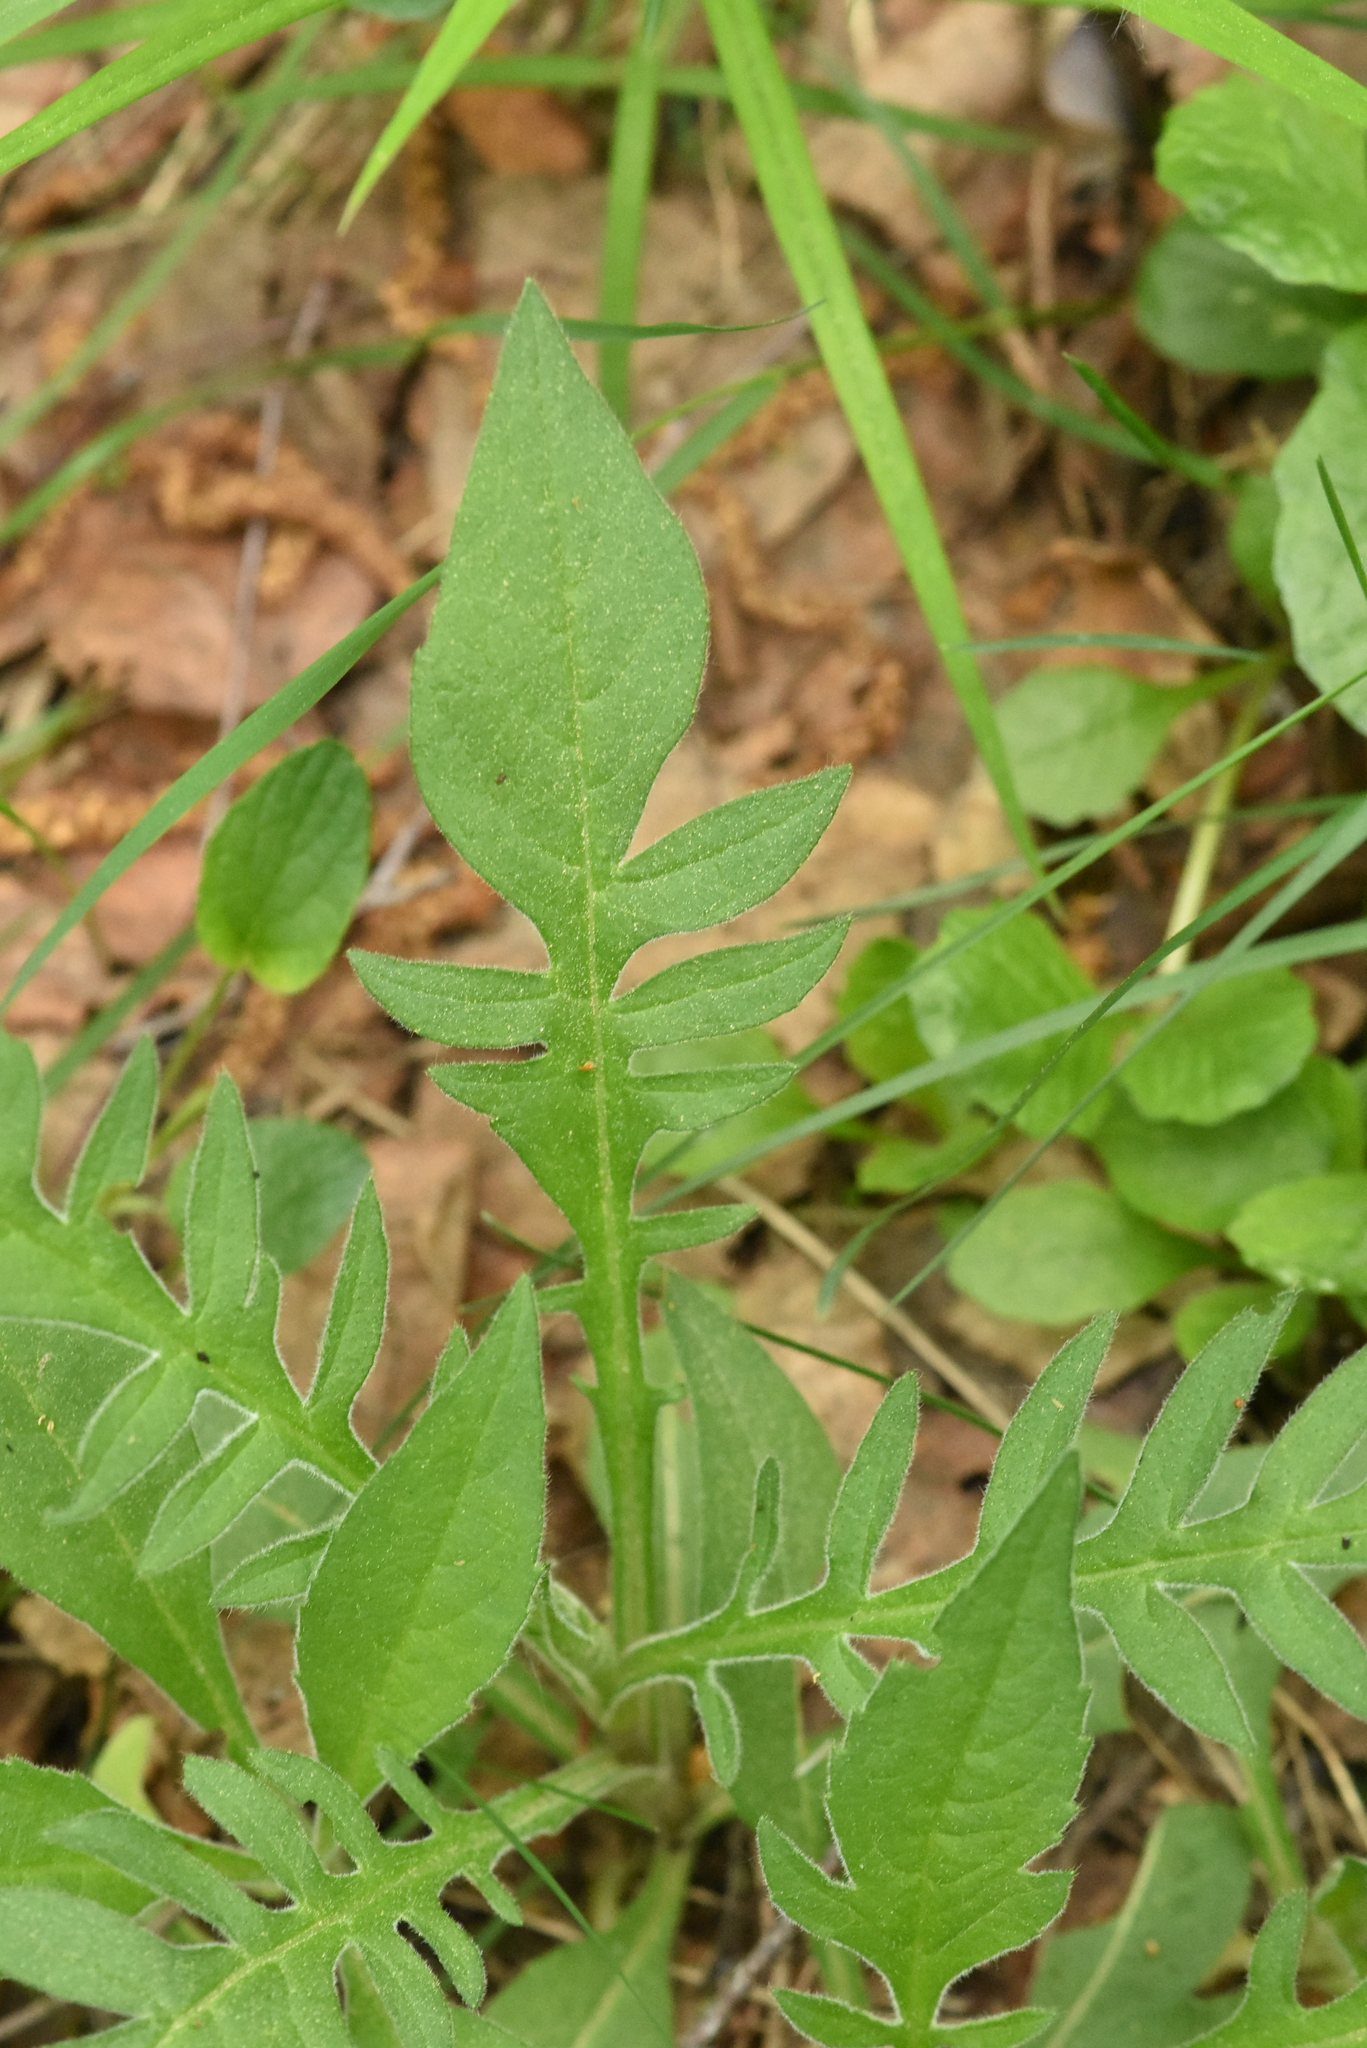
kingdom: Plantae
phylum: Tracheophyta
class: Magnoliopsida
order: Dipsacales
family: Caprifoliaceae
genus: Knautia
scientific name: Knautia arvensis
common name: Field scabiosa
